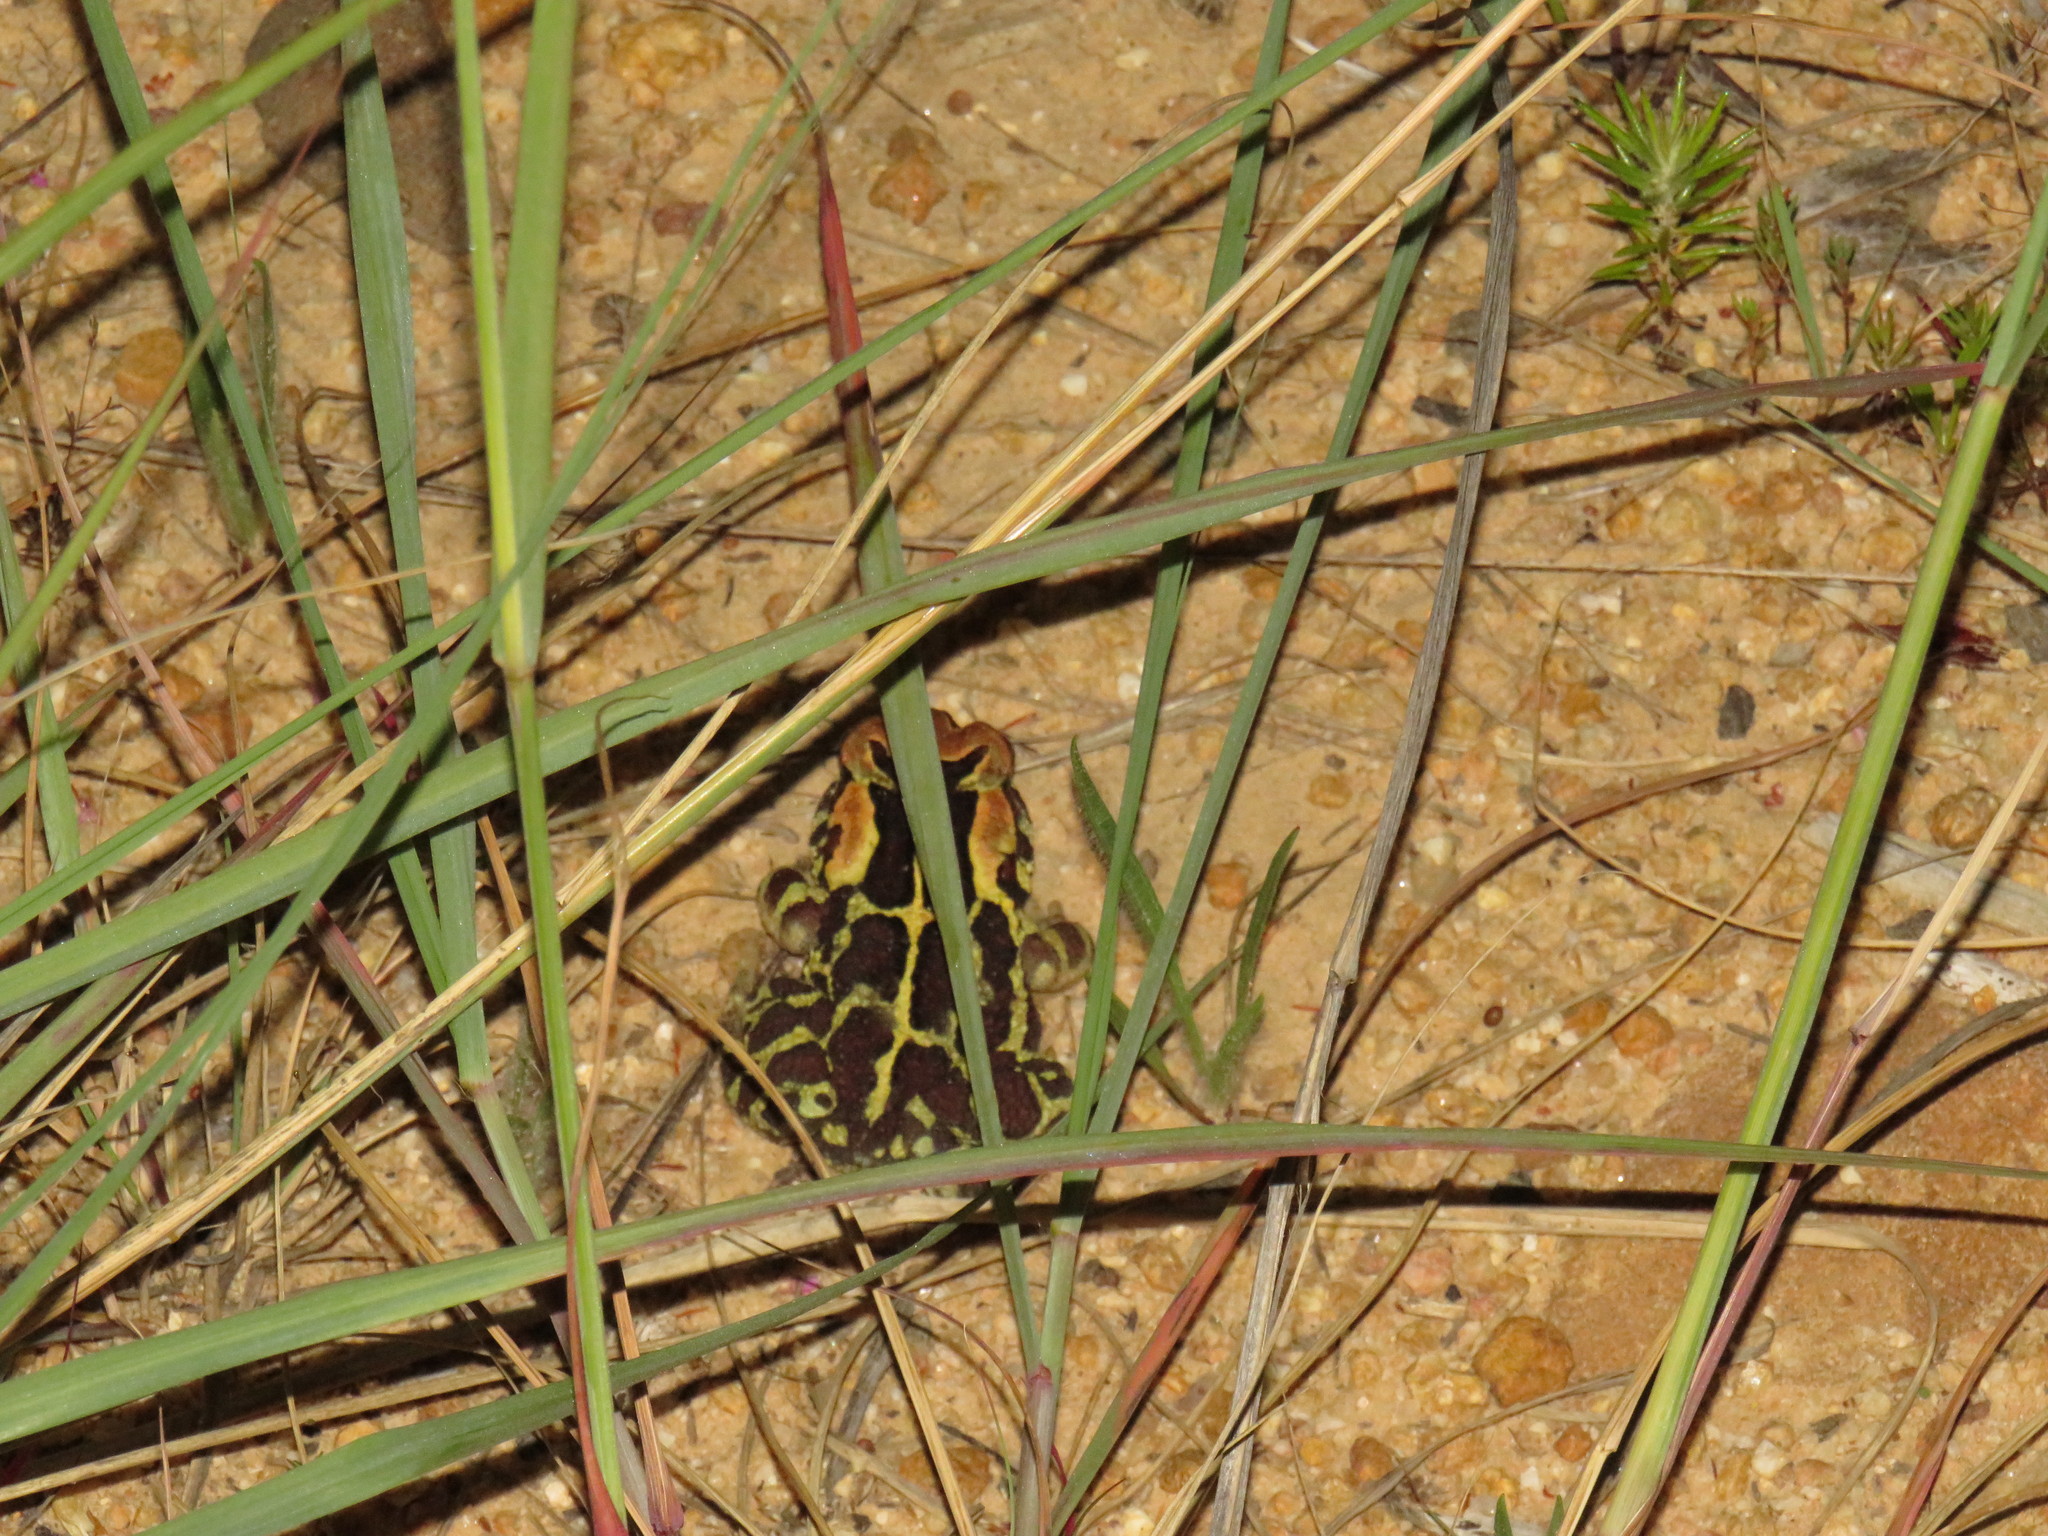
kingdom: Animalia
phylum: Chordata
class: Amphibia
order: Anura
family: Bufonidae
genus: Sclerophrys
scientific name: Sclerophrys pantherina
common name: Panther toad
